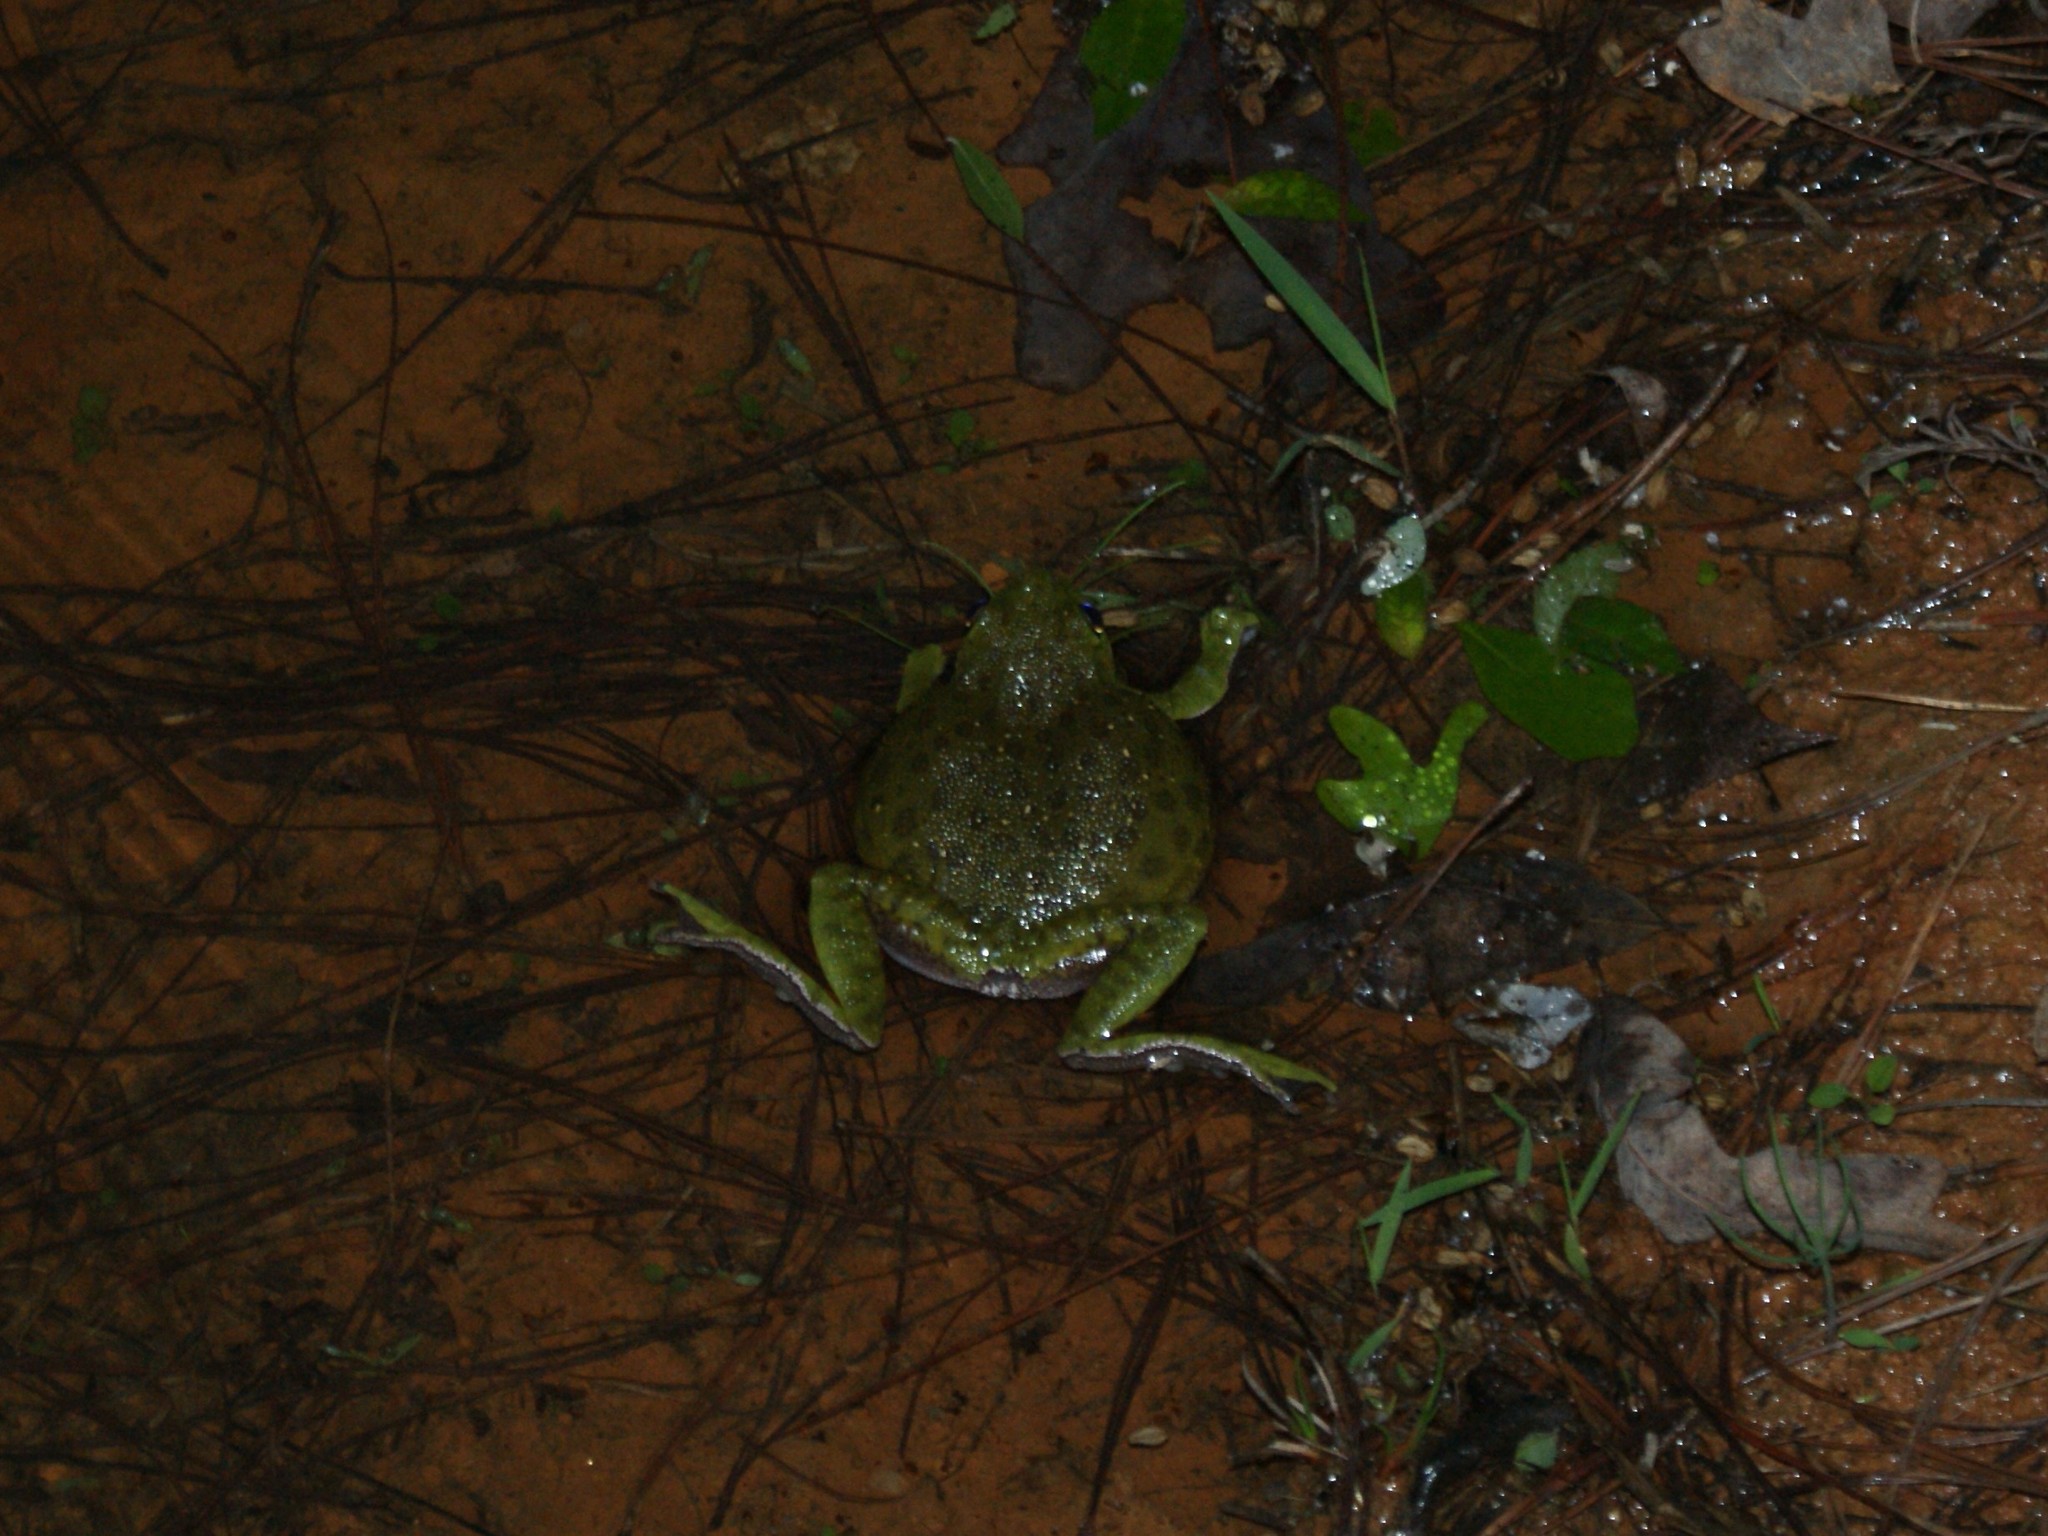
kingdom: Animalia
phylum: Chordata
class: Amphibia
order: Anura
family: Hylidae
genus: Dryophytes
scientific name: Dryophytes gratiosus
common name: Barking treefrog
